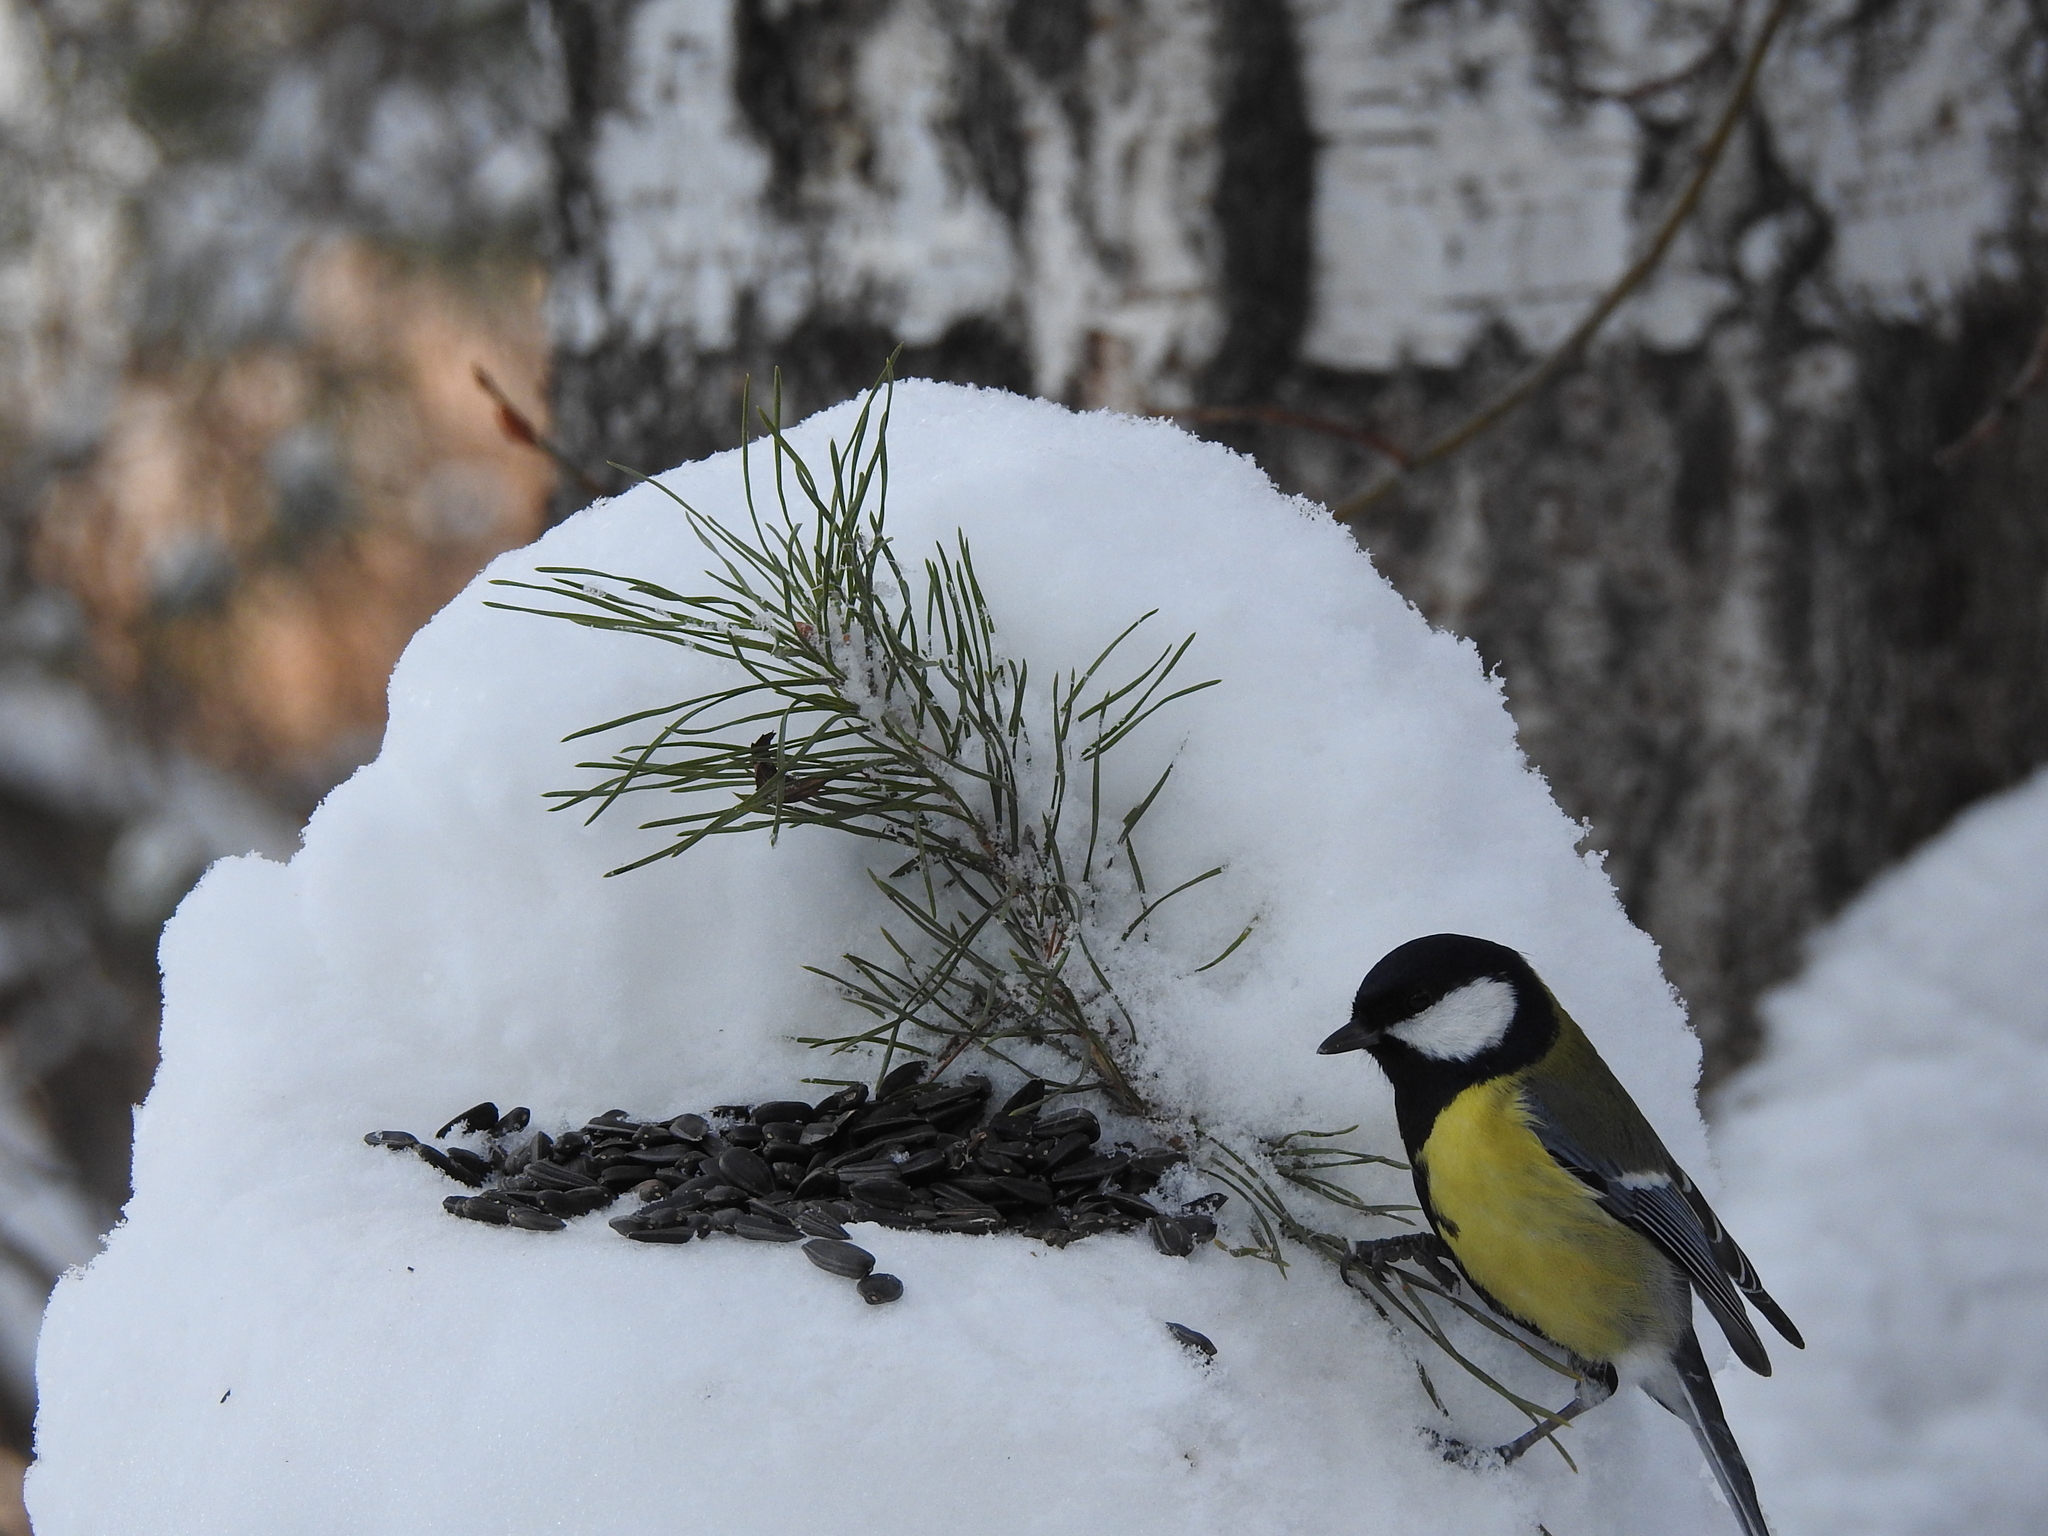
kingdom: Animalia
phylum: Chordata
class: Aves
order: Passeriformes
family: Paridae
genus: Parus
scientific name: Parus major
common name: Great tit
